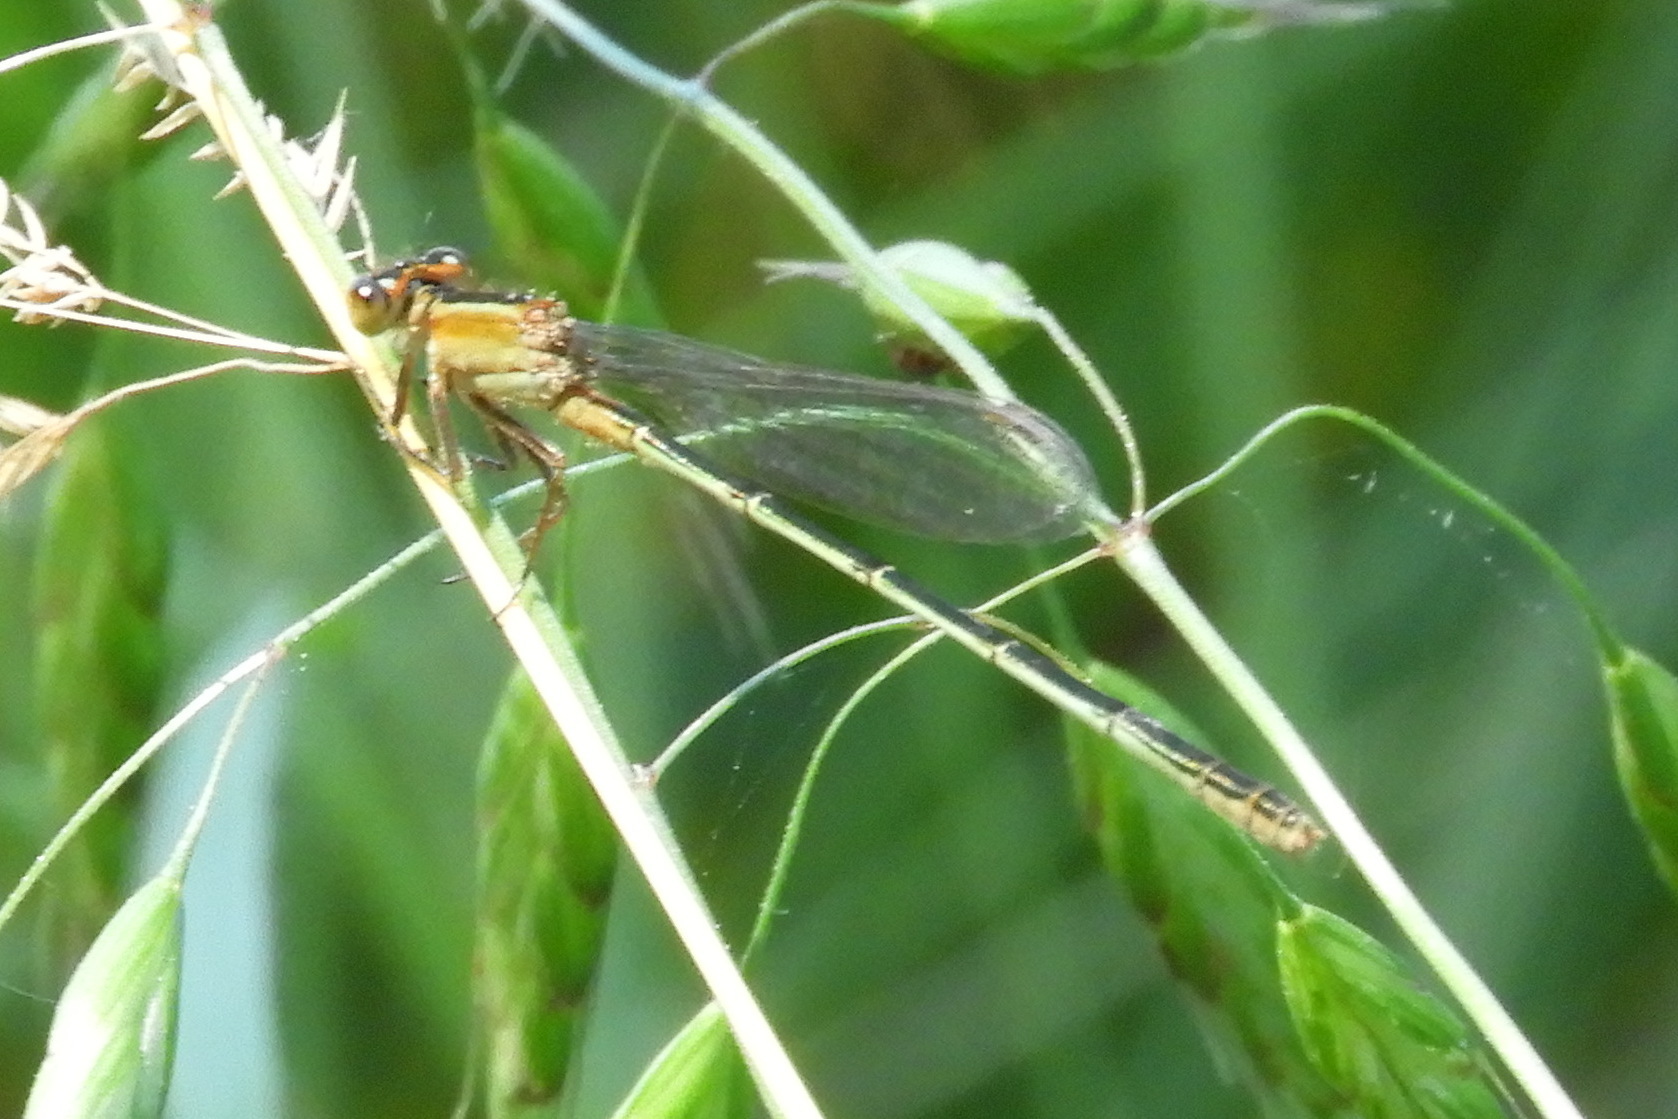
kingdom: Animalia
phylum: Arthropoda
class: Insecta
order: Odonata
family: Coenagrionidae
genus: Ischnura
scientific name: Ischnura ramburii
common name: Rambur's forktail
